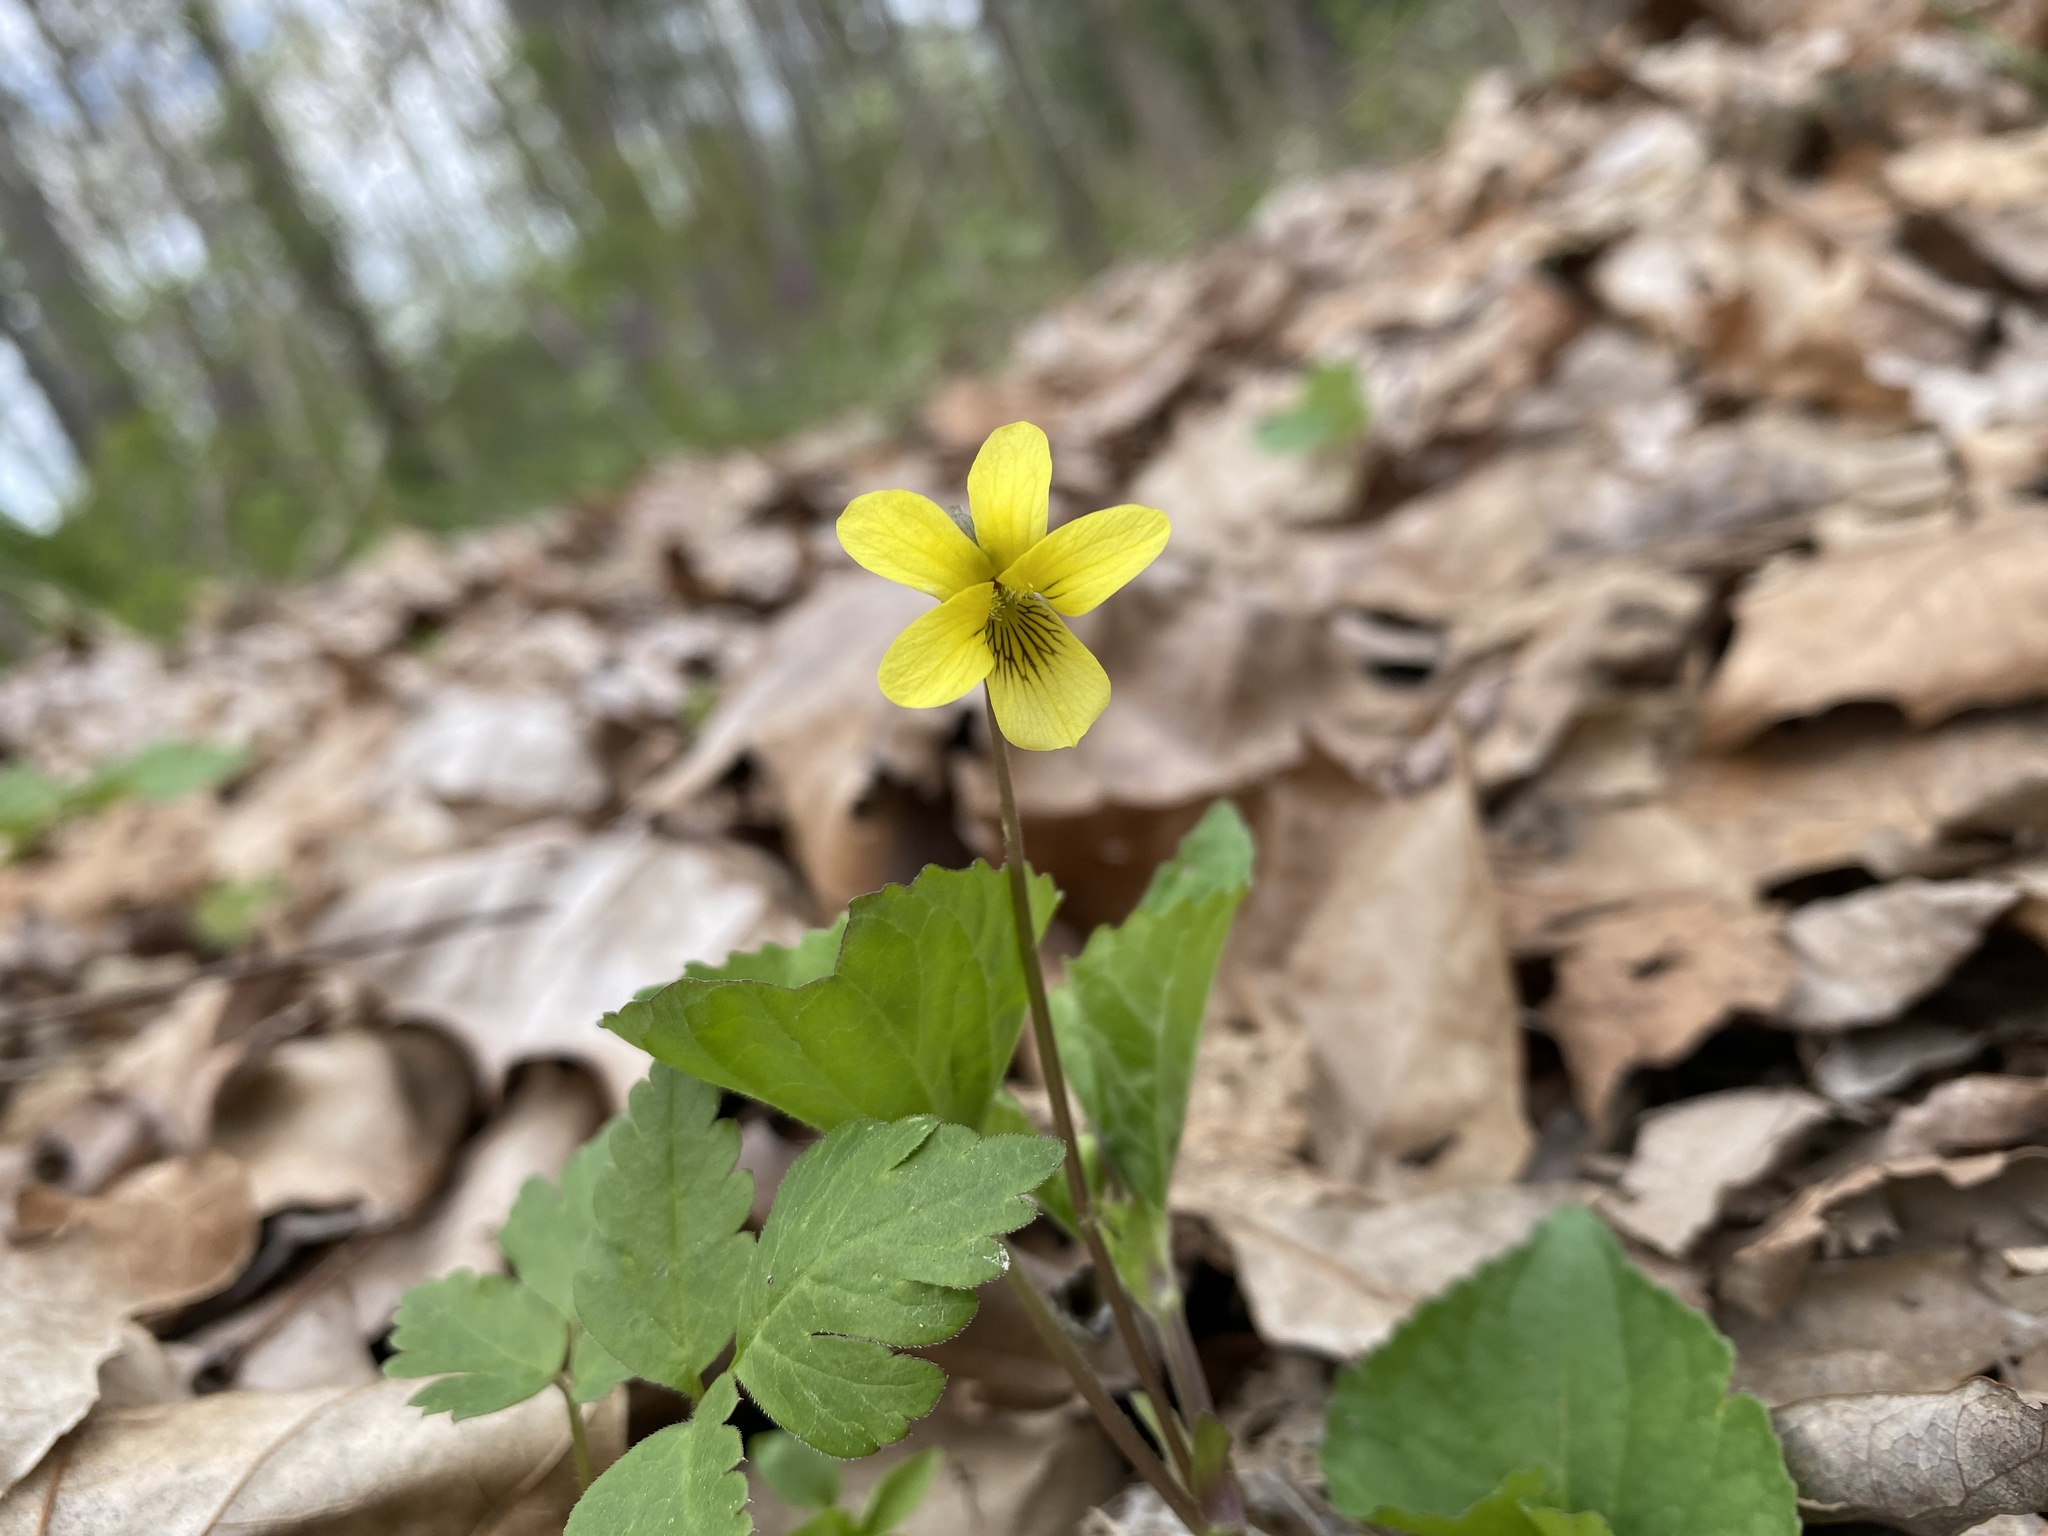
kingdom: Plantae
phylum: Tracheophyta
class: Magnoliopsida
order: Malpighiales
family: Violaceae
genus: Viola
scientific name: Viola eriocarpa
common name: Smooth yellow violet
